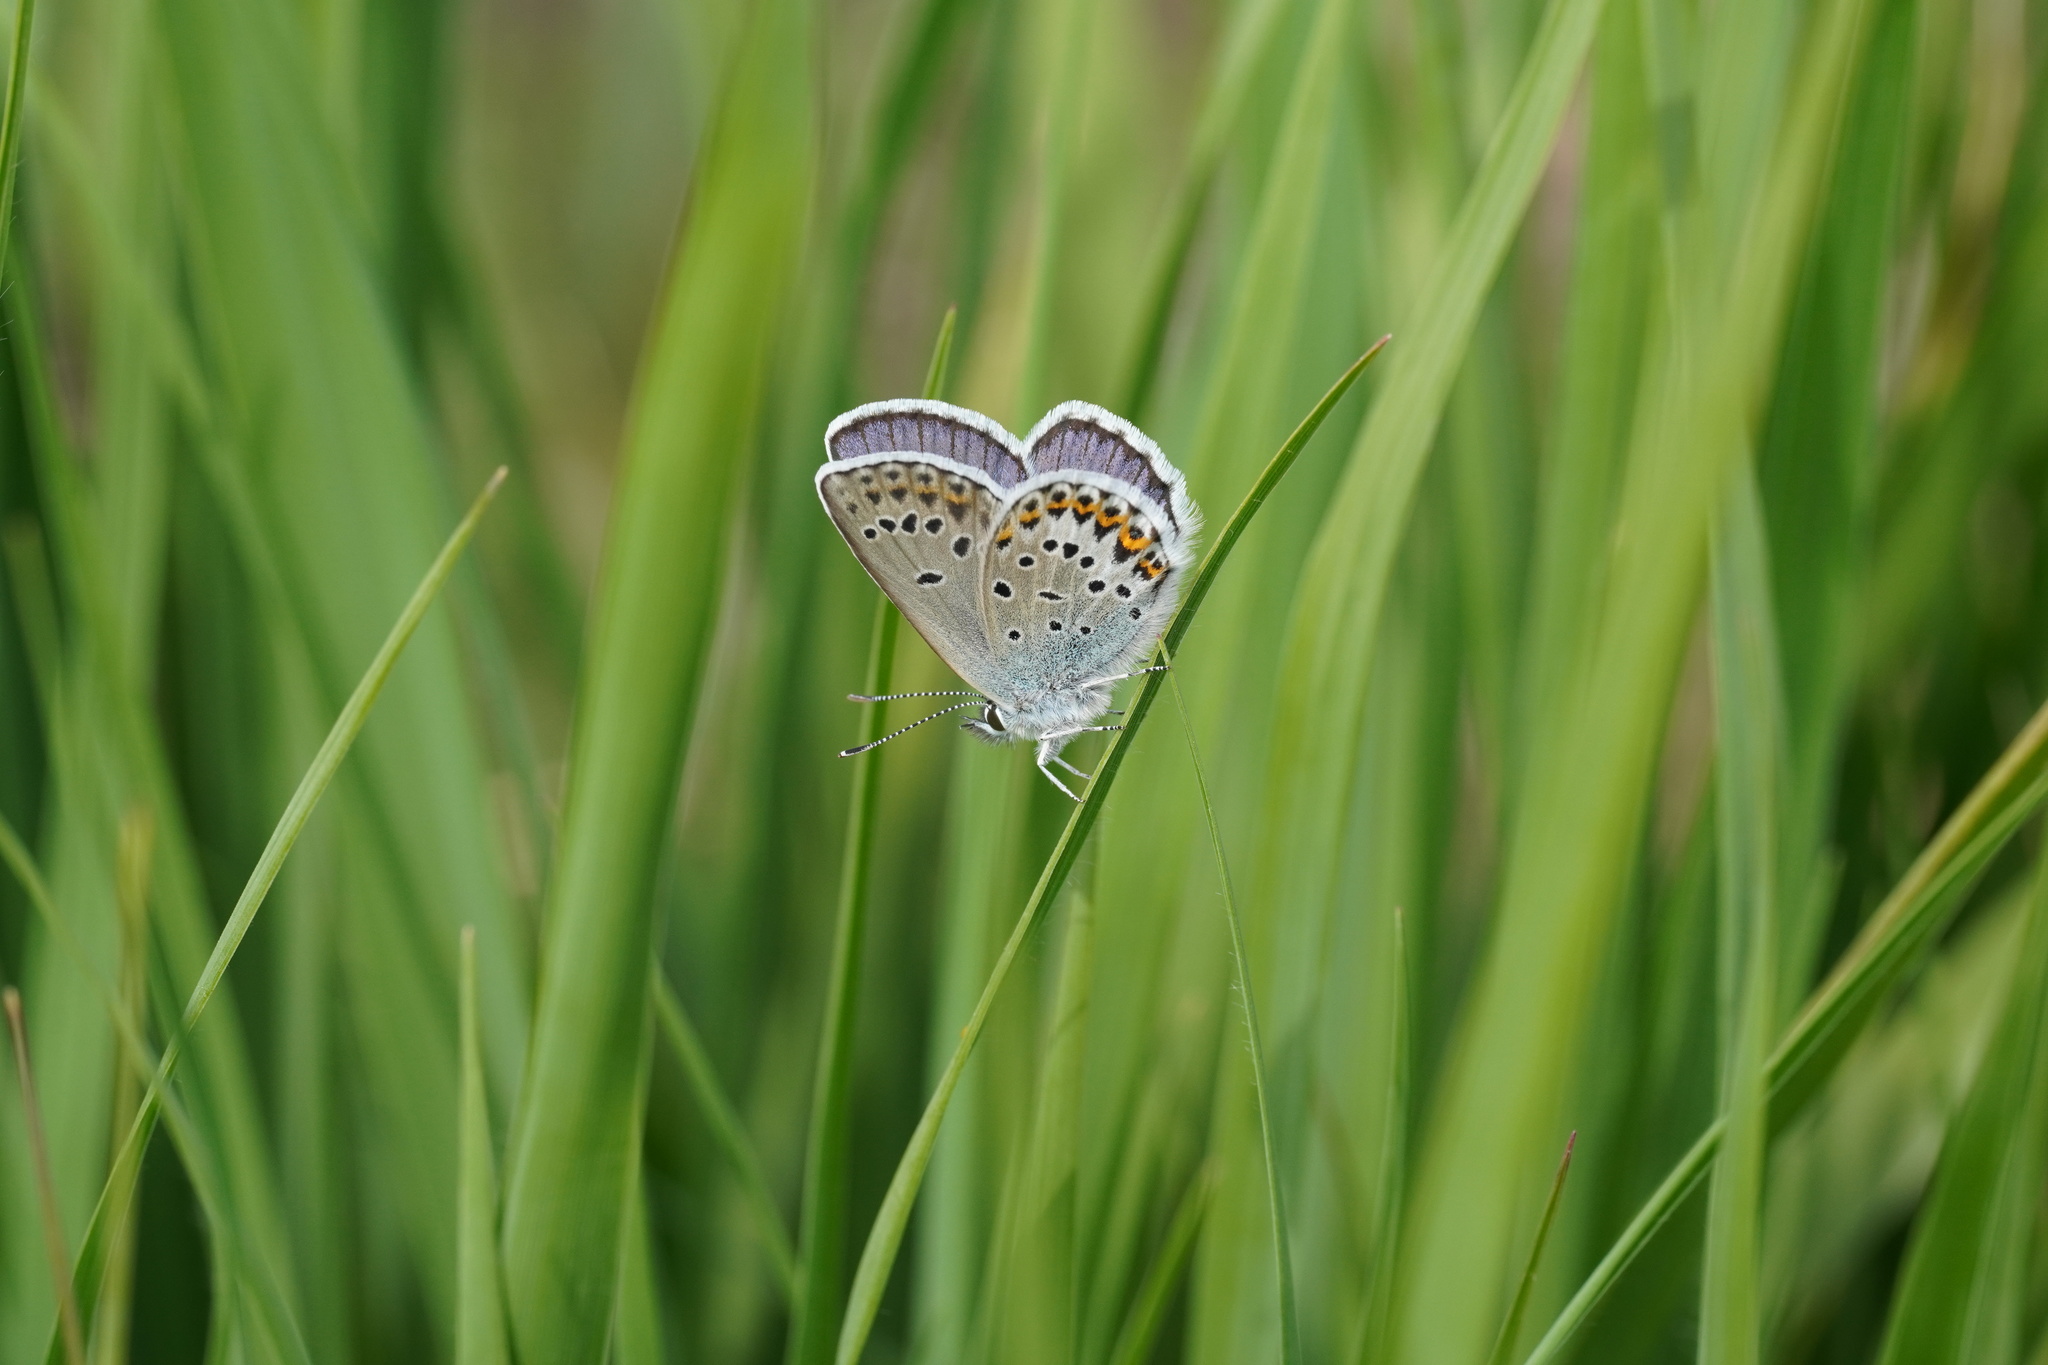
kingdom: Animalia
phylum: Arthropoda
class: Insecta
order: Lepidoptera
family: Lycaenidae
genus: Lycaeides
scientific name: Lycaeides idas
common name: Northern blue
